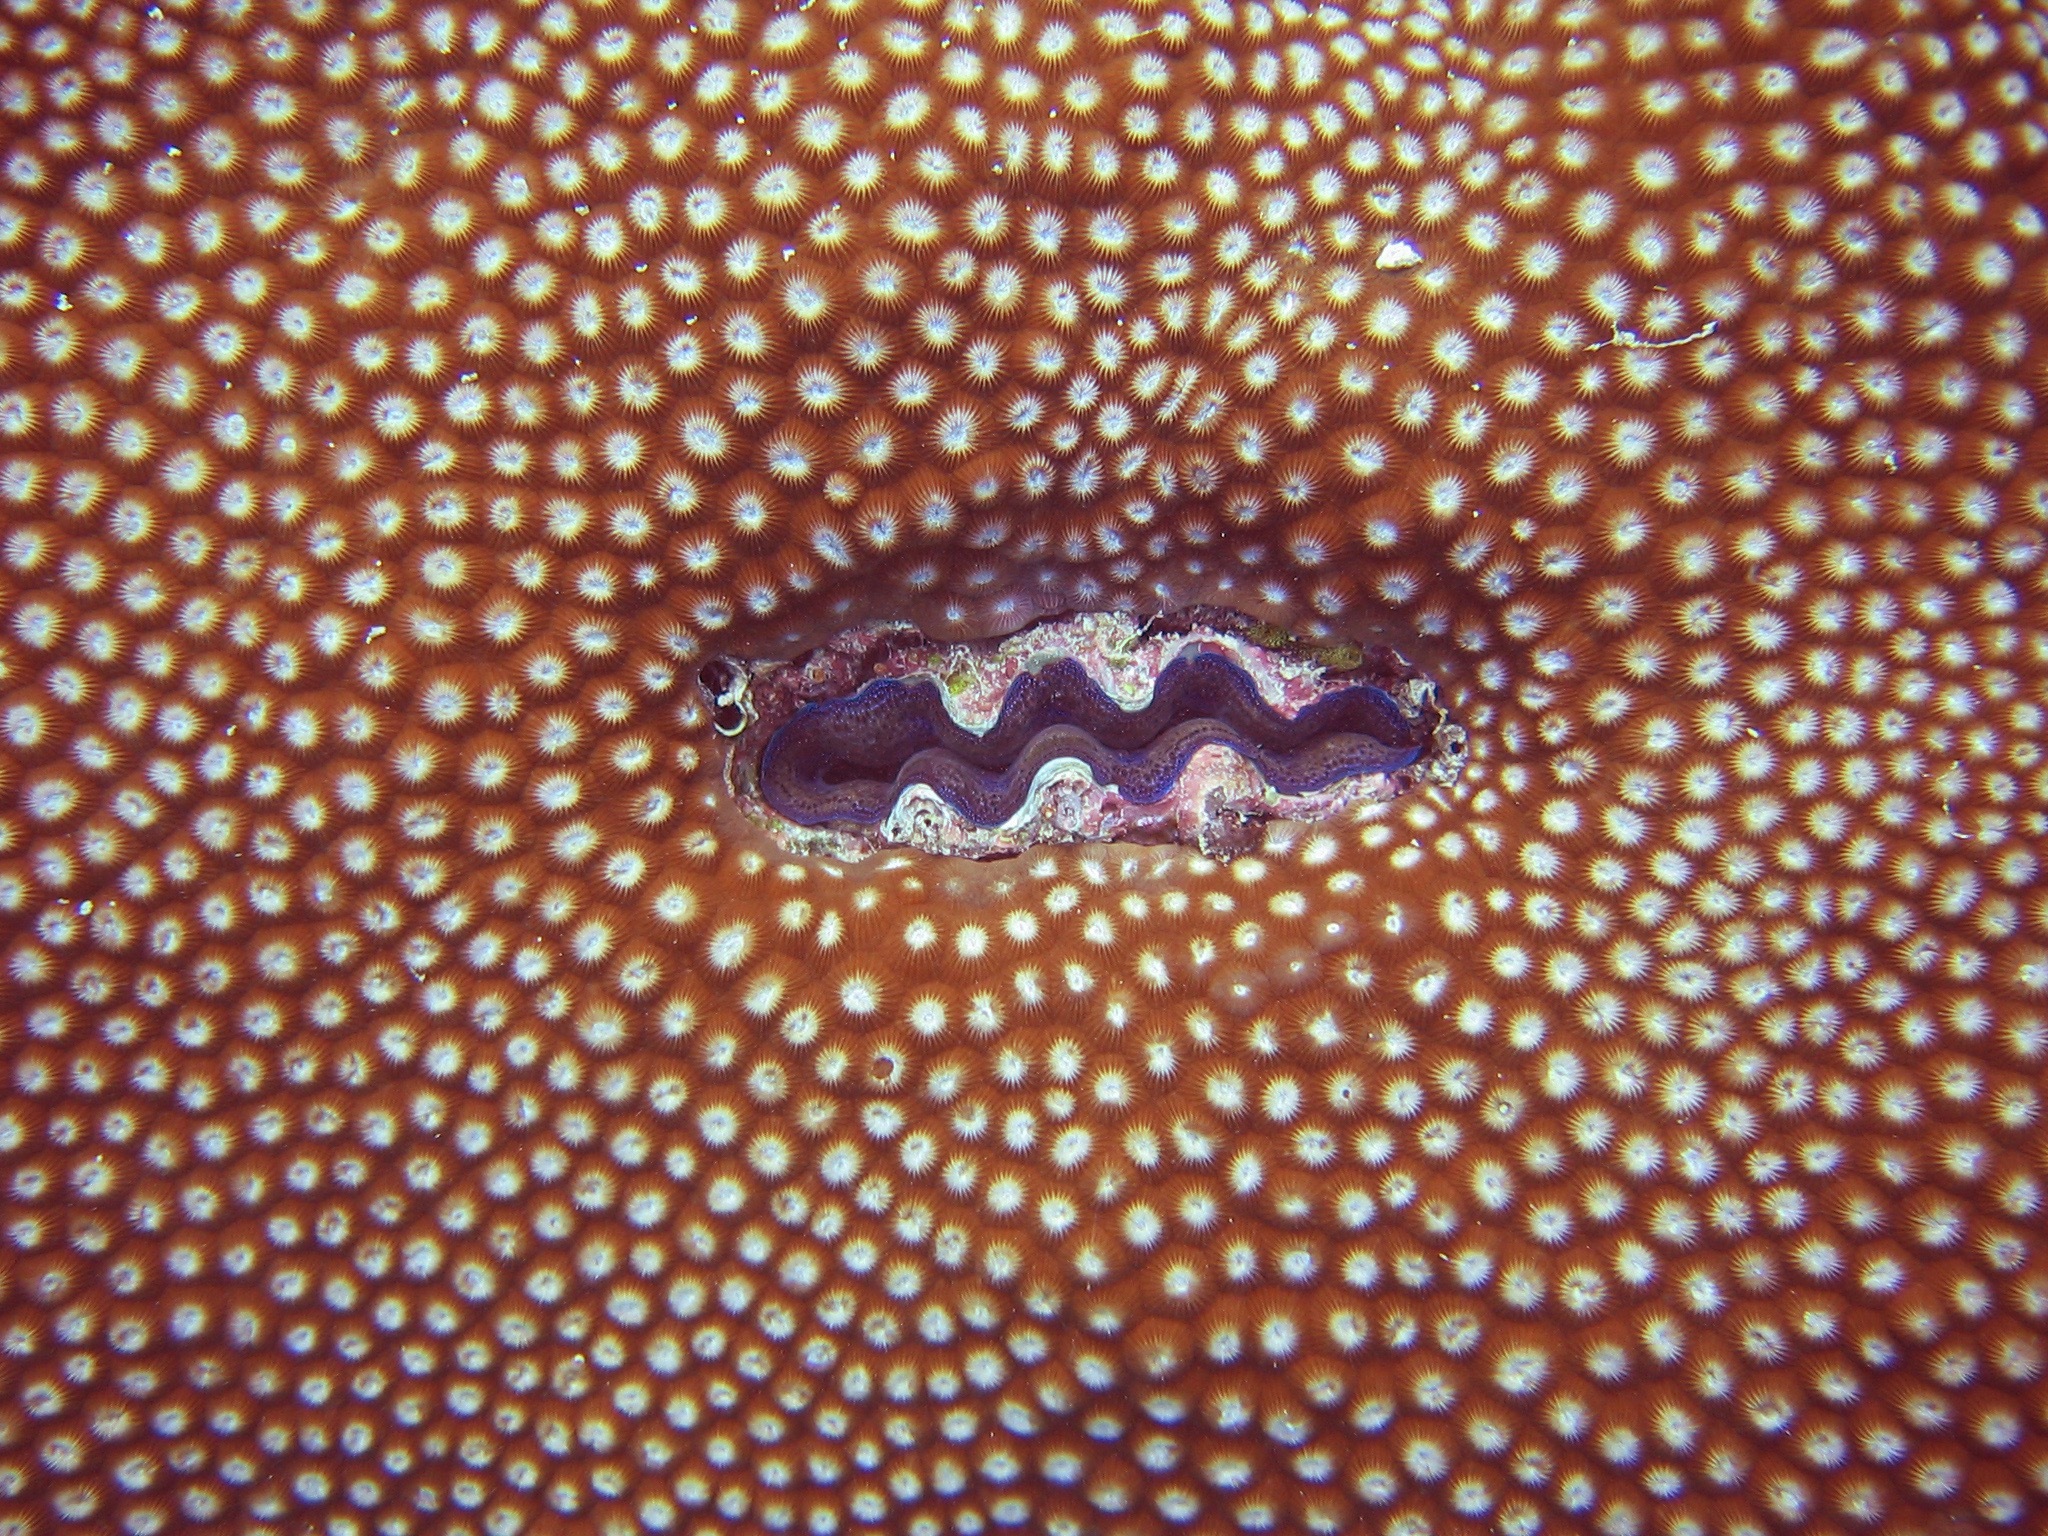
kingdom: Animalia
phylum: Mollusca
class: Bivalvia
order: Cardiida
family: Cardiidae
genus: Tridacna
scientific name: Tridacna crocea
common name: Boring clam
